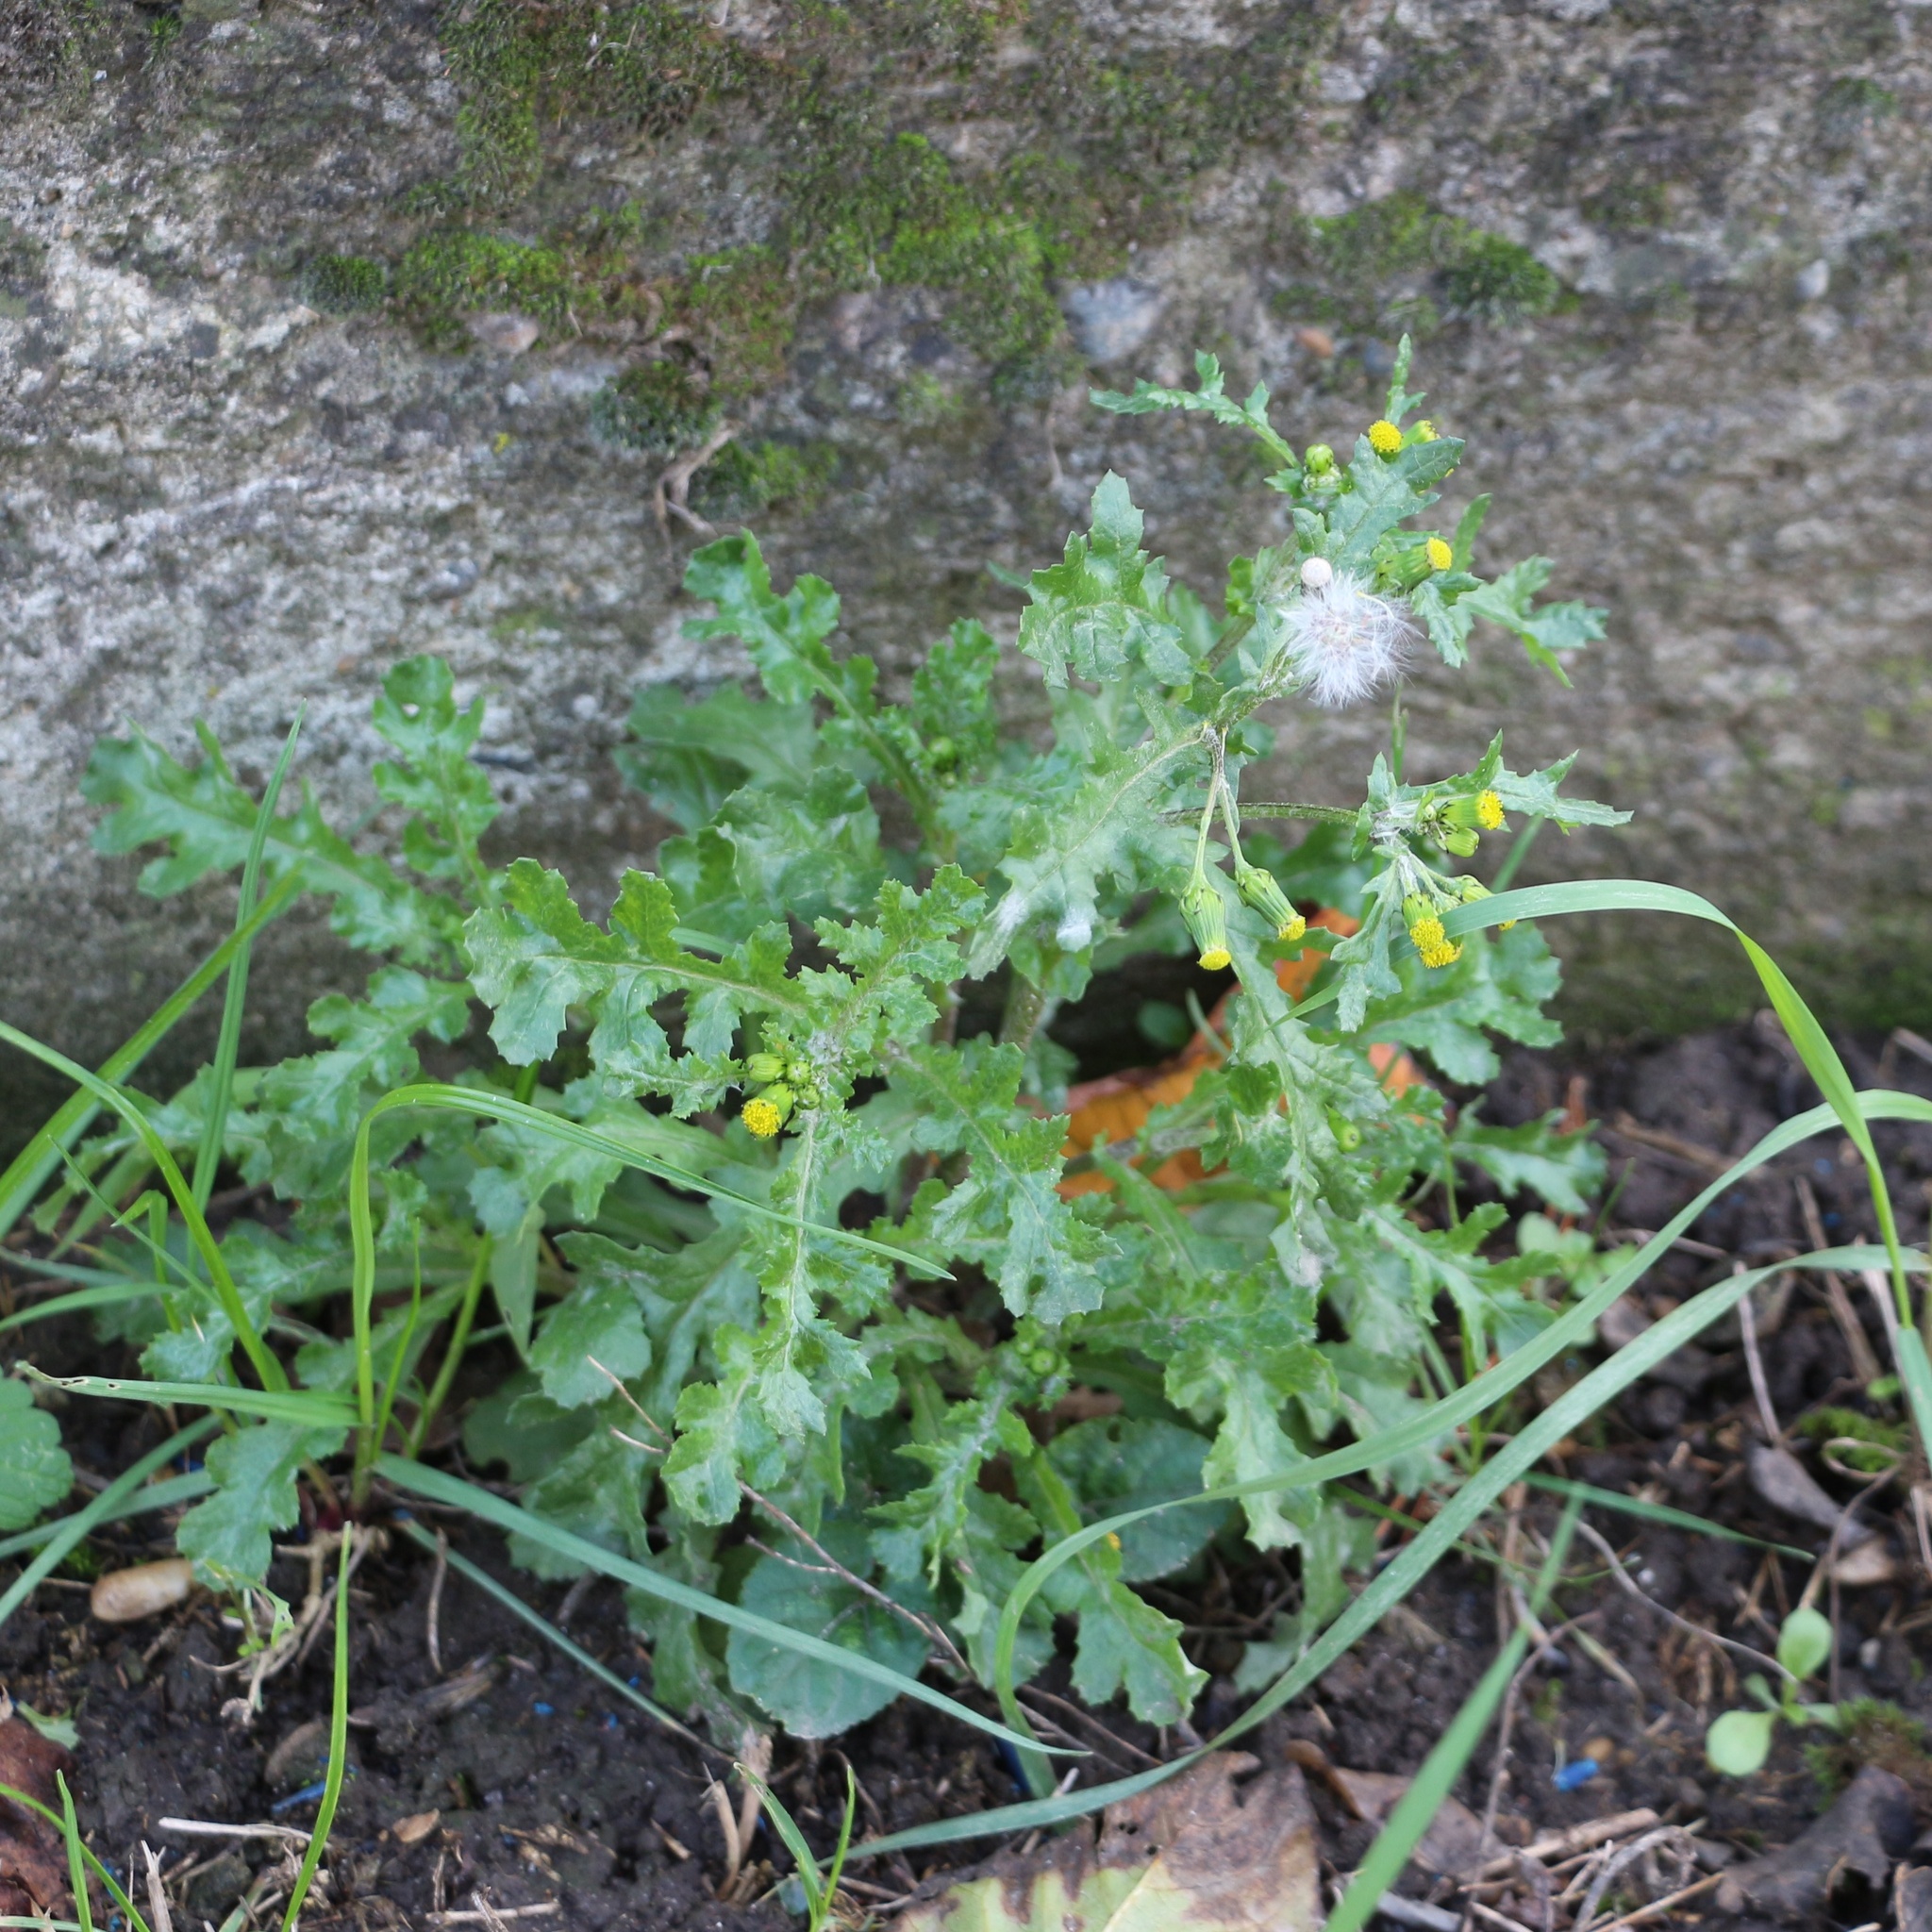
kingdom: Plantae
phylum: Tracheophyta
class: Magnoliopsida
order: Asterales
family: Asteraceae
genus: Senecio
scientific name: Senecio vulgaris
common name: Old-man-in-the-spring
